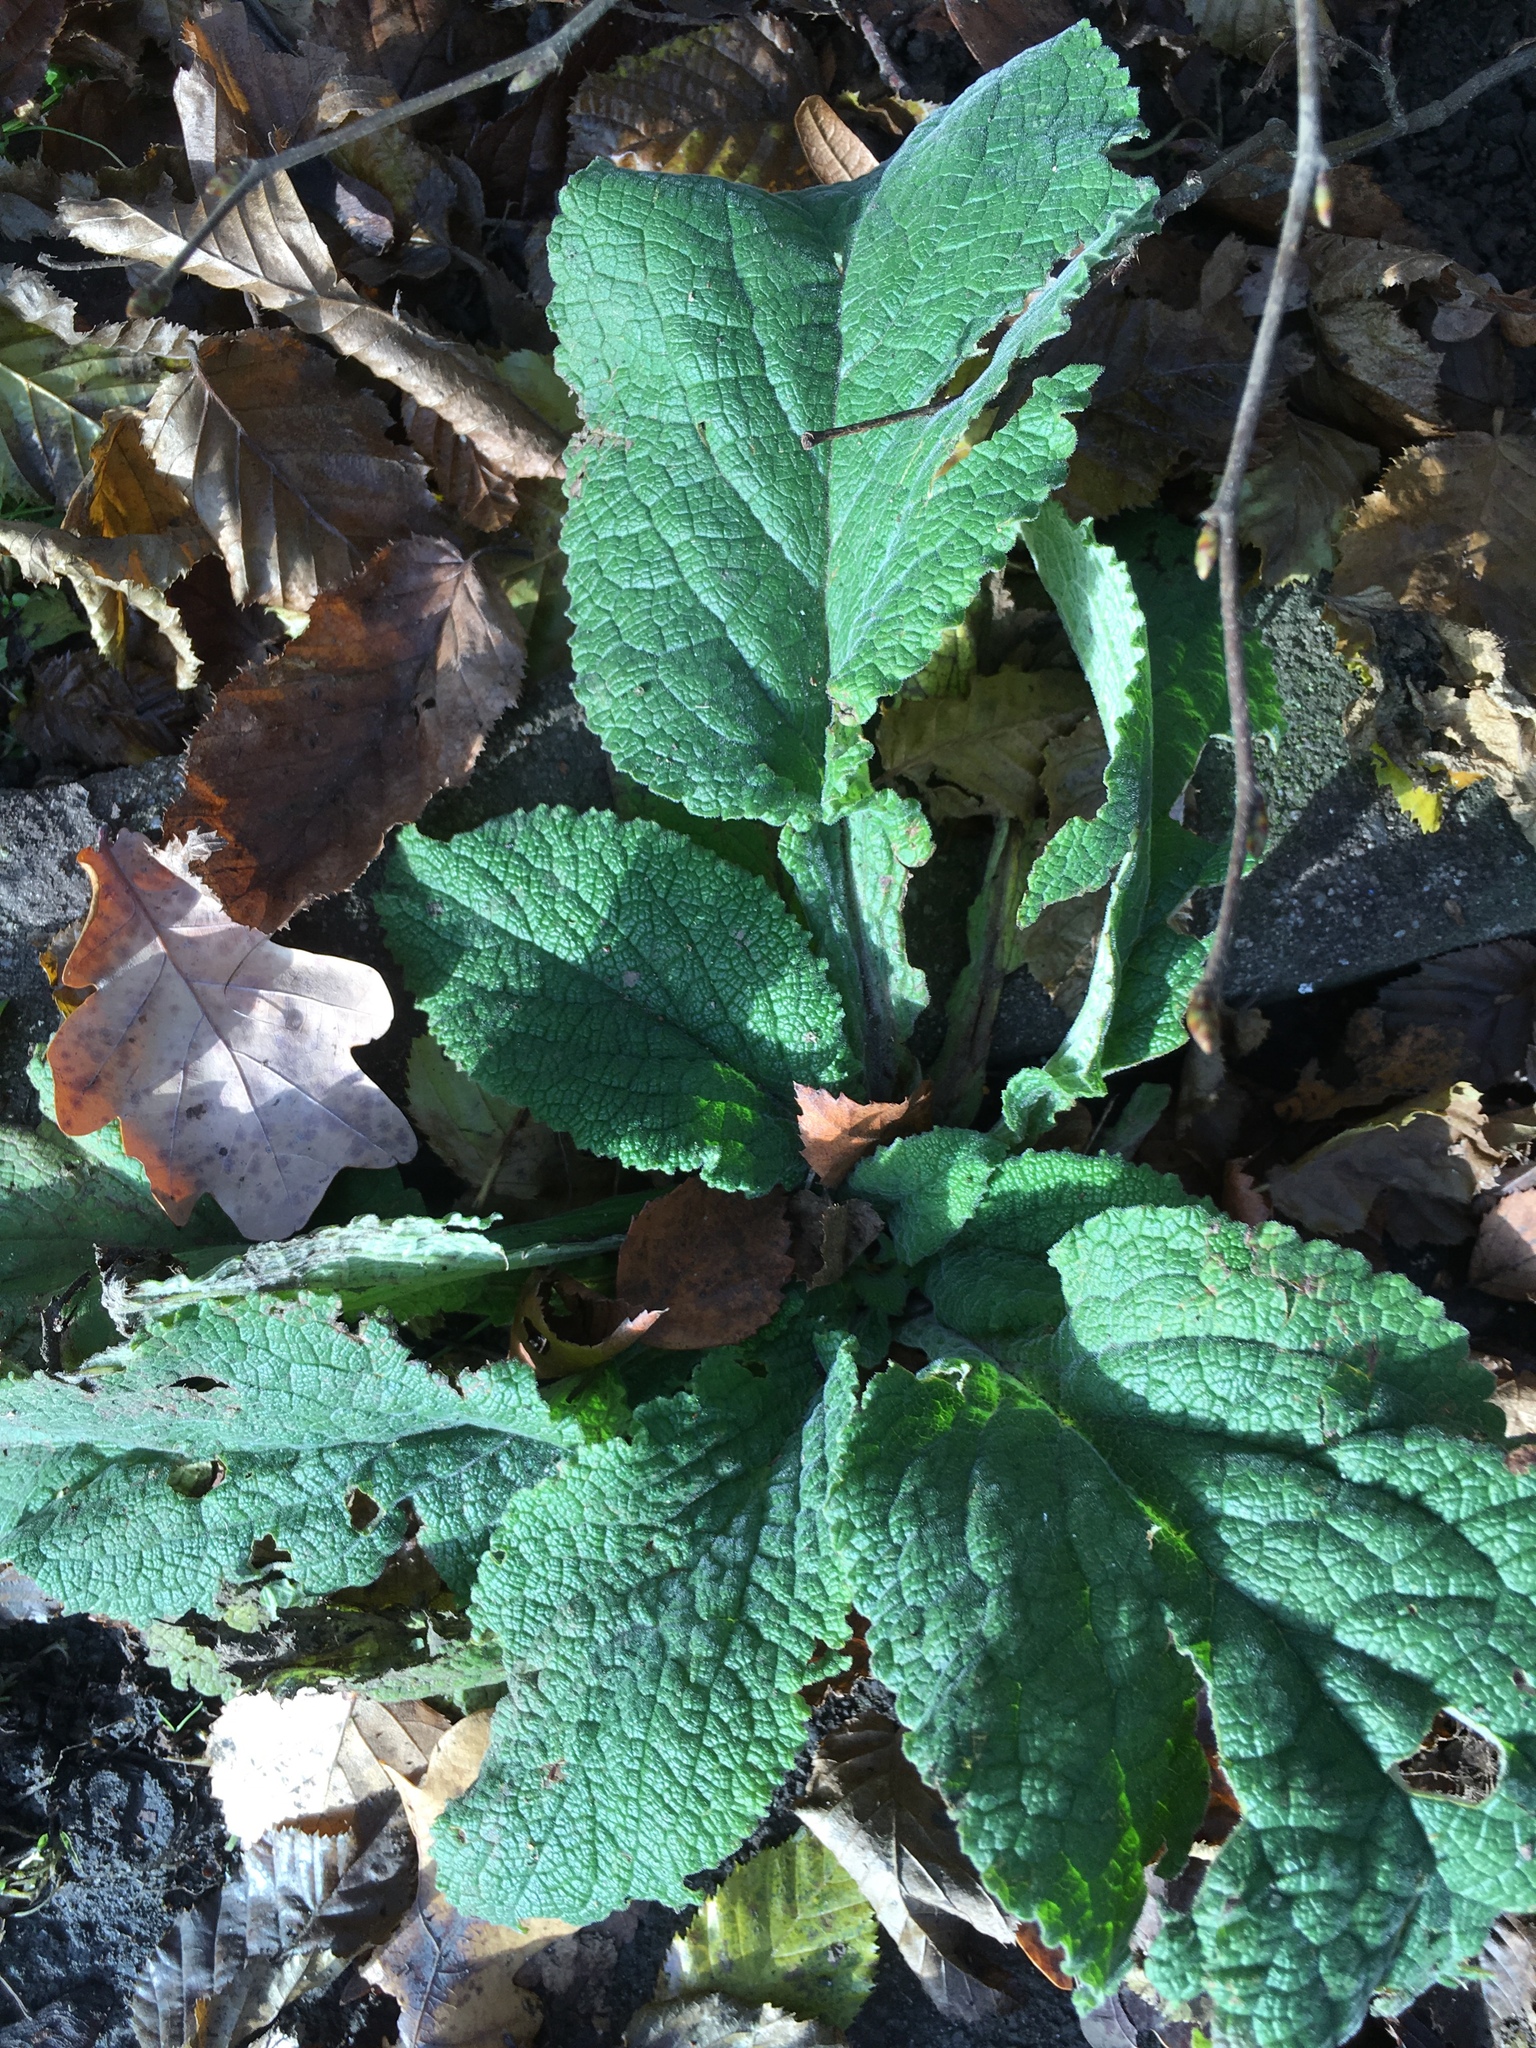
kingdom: Plantae
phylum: Tracheophyta
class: Magnoliopsida
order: Lamiales
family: Plantaginaceae
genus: Digitalis
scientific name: Digitalis purpurea
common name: Foxglove
